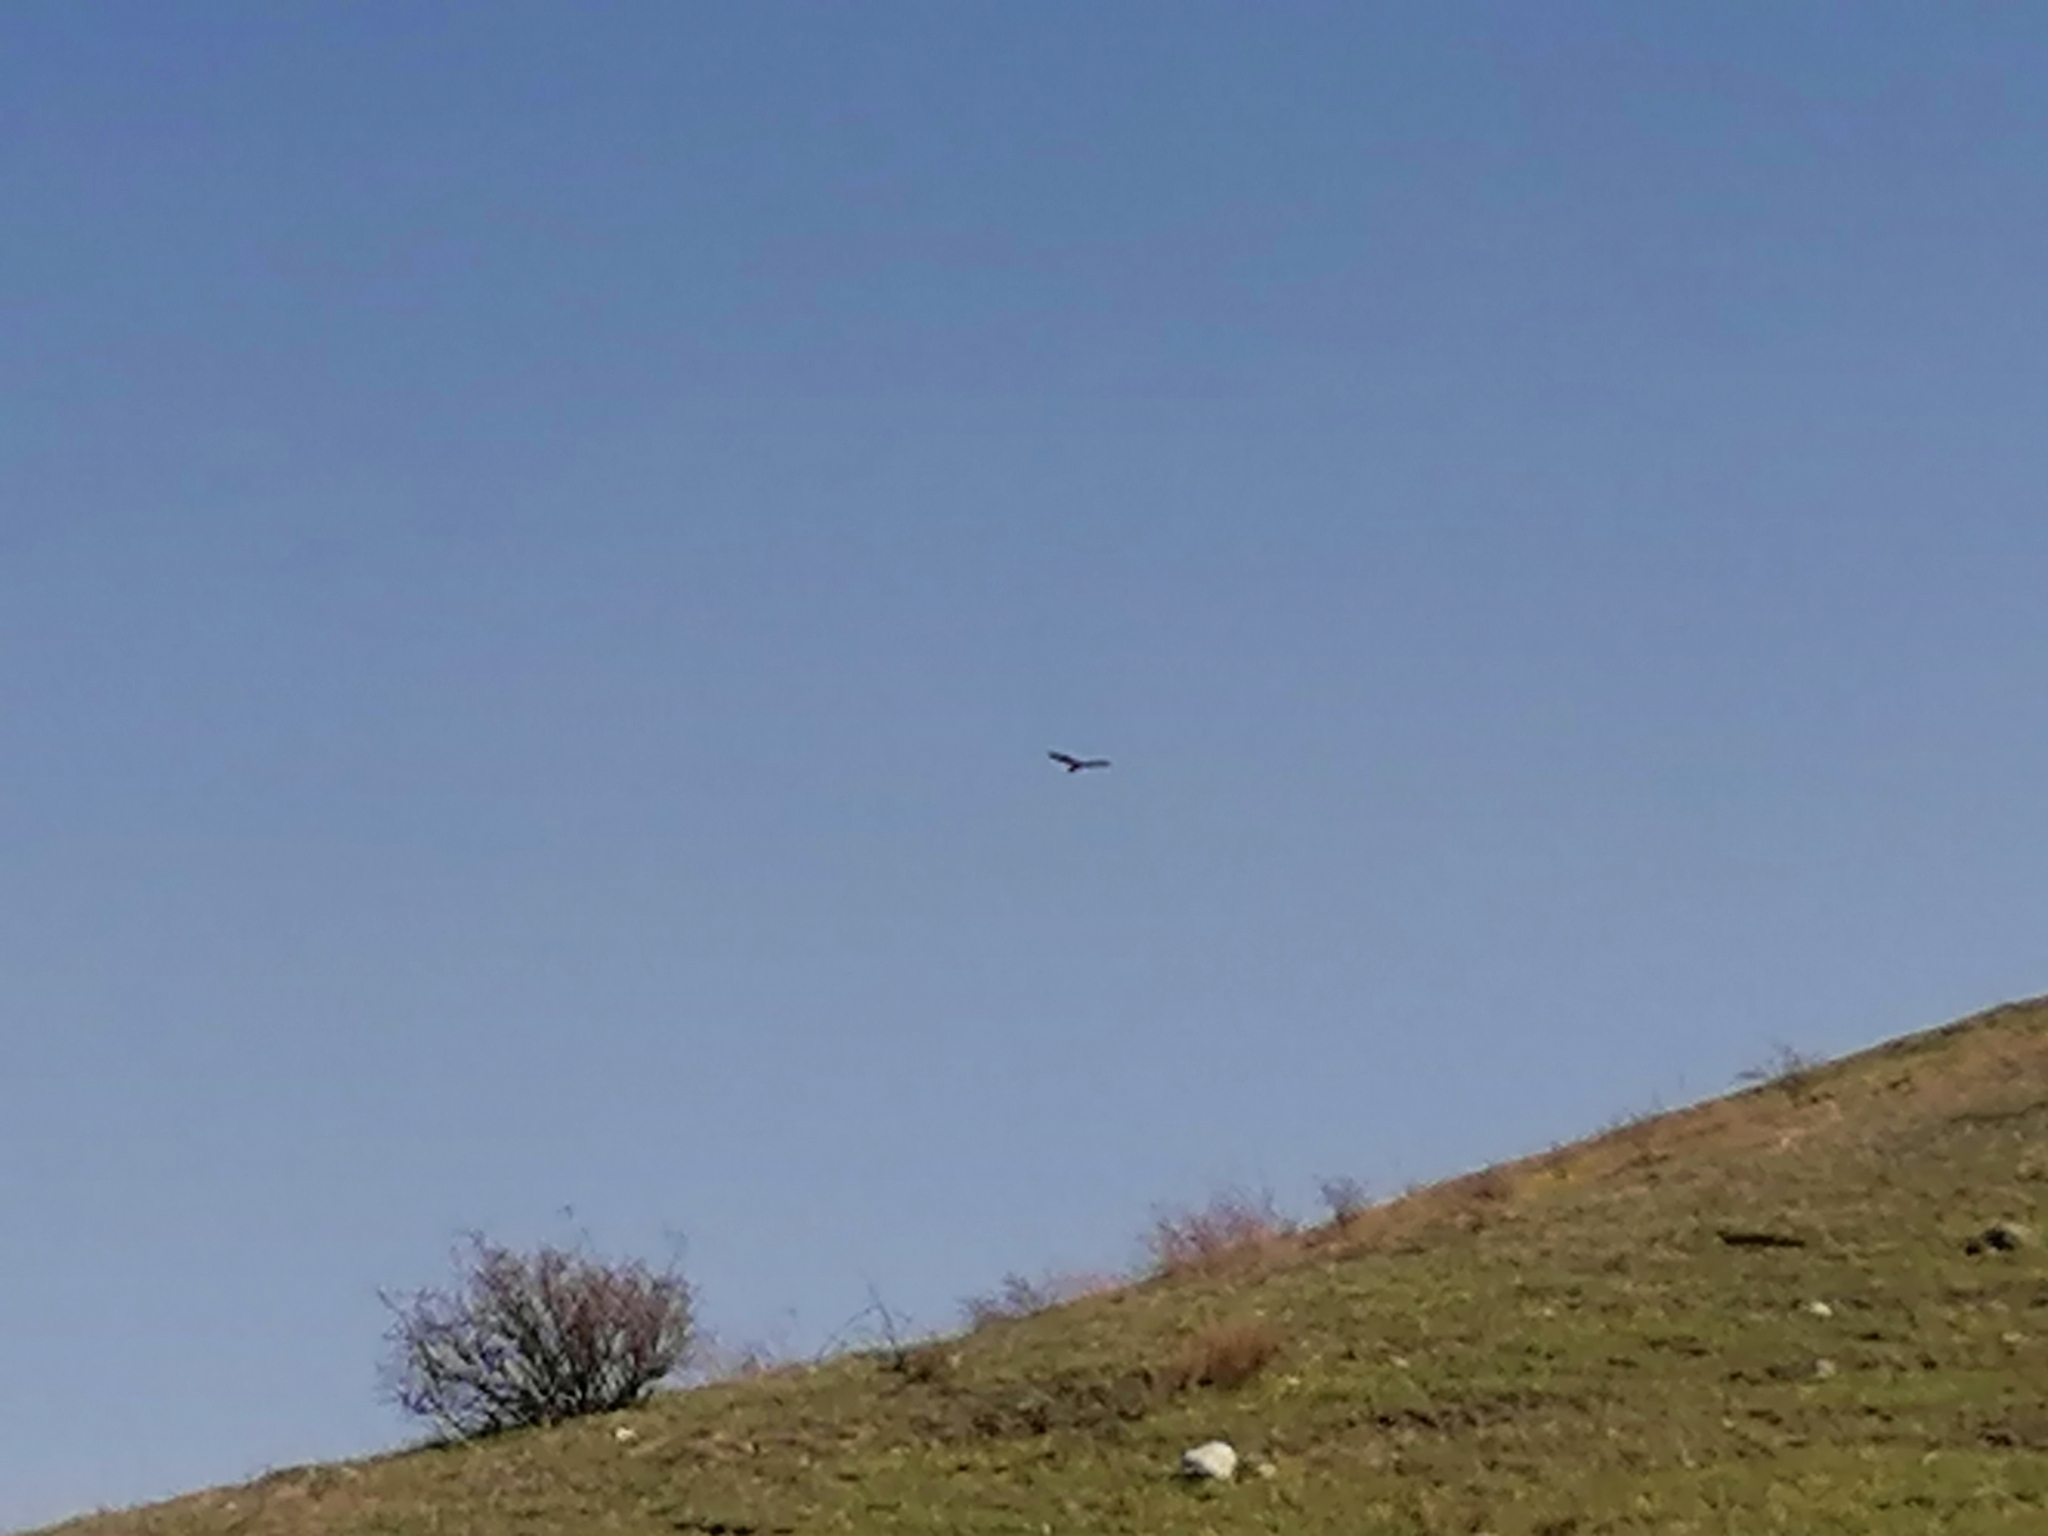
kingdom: Animalia
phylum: Chordata
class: Aves
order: Accipitriformes
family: Accipitridae
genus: Milvus
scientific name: Milvus migrans
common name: Black kite
